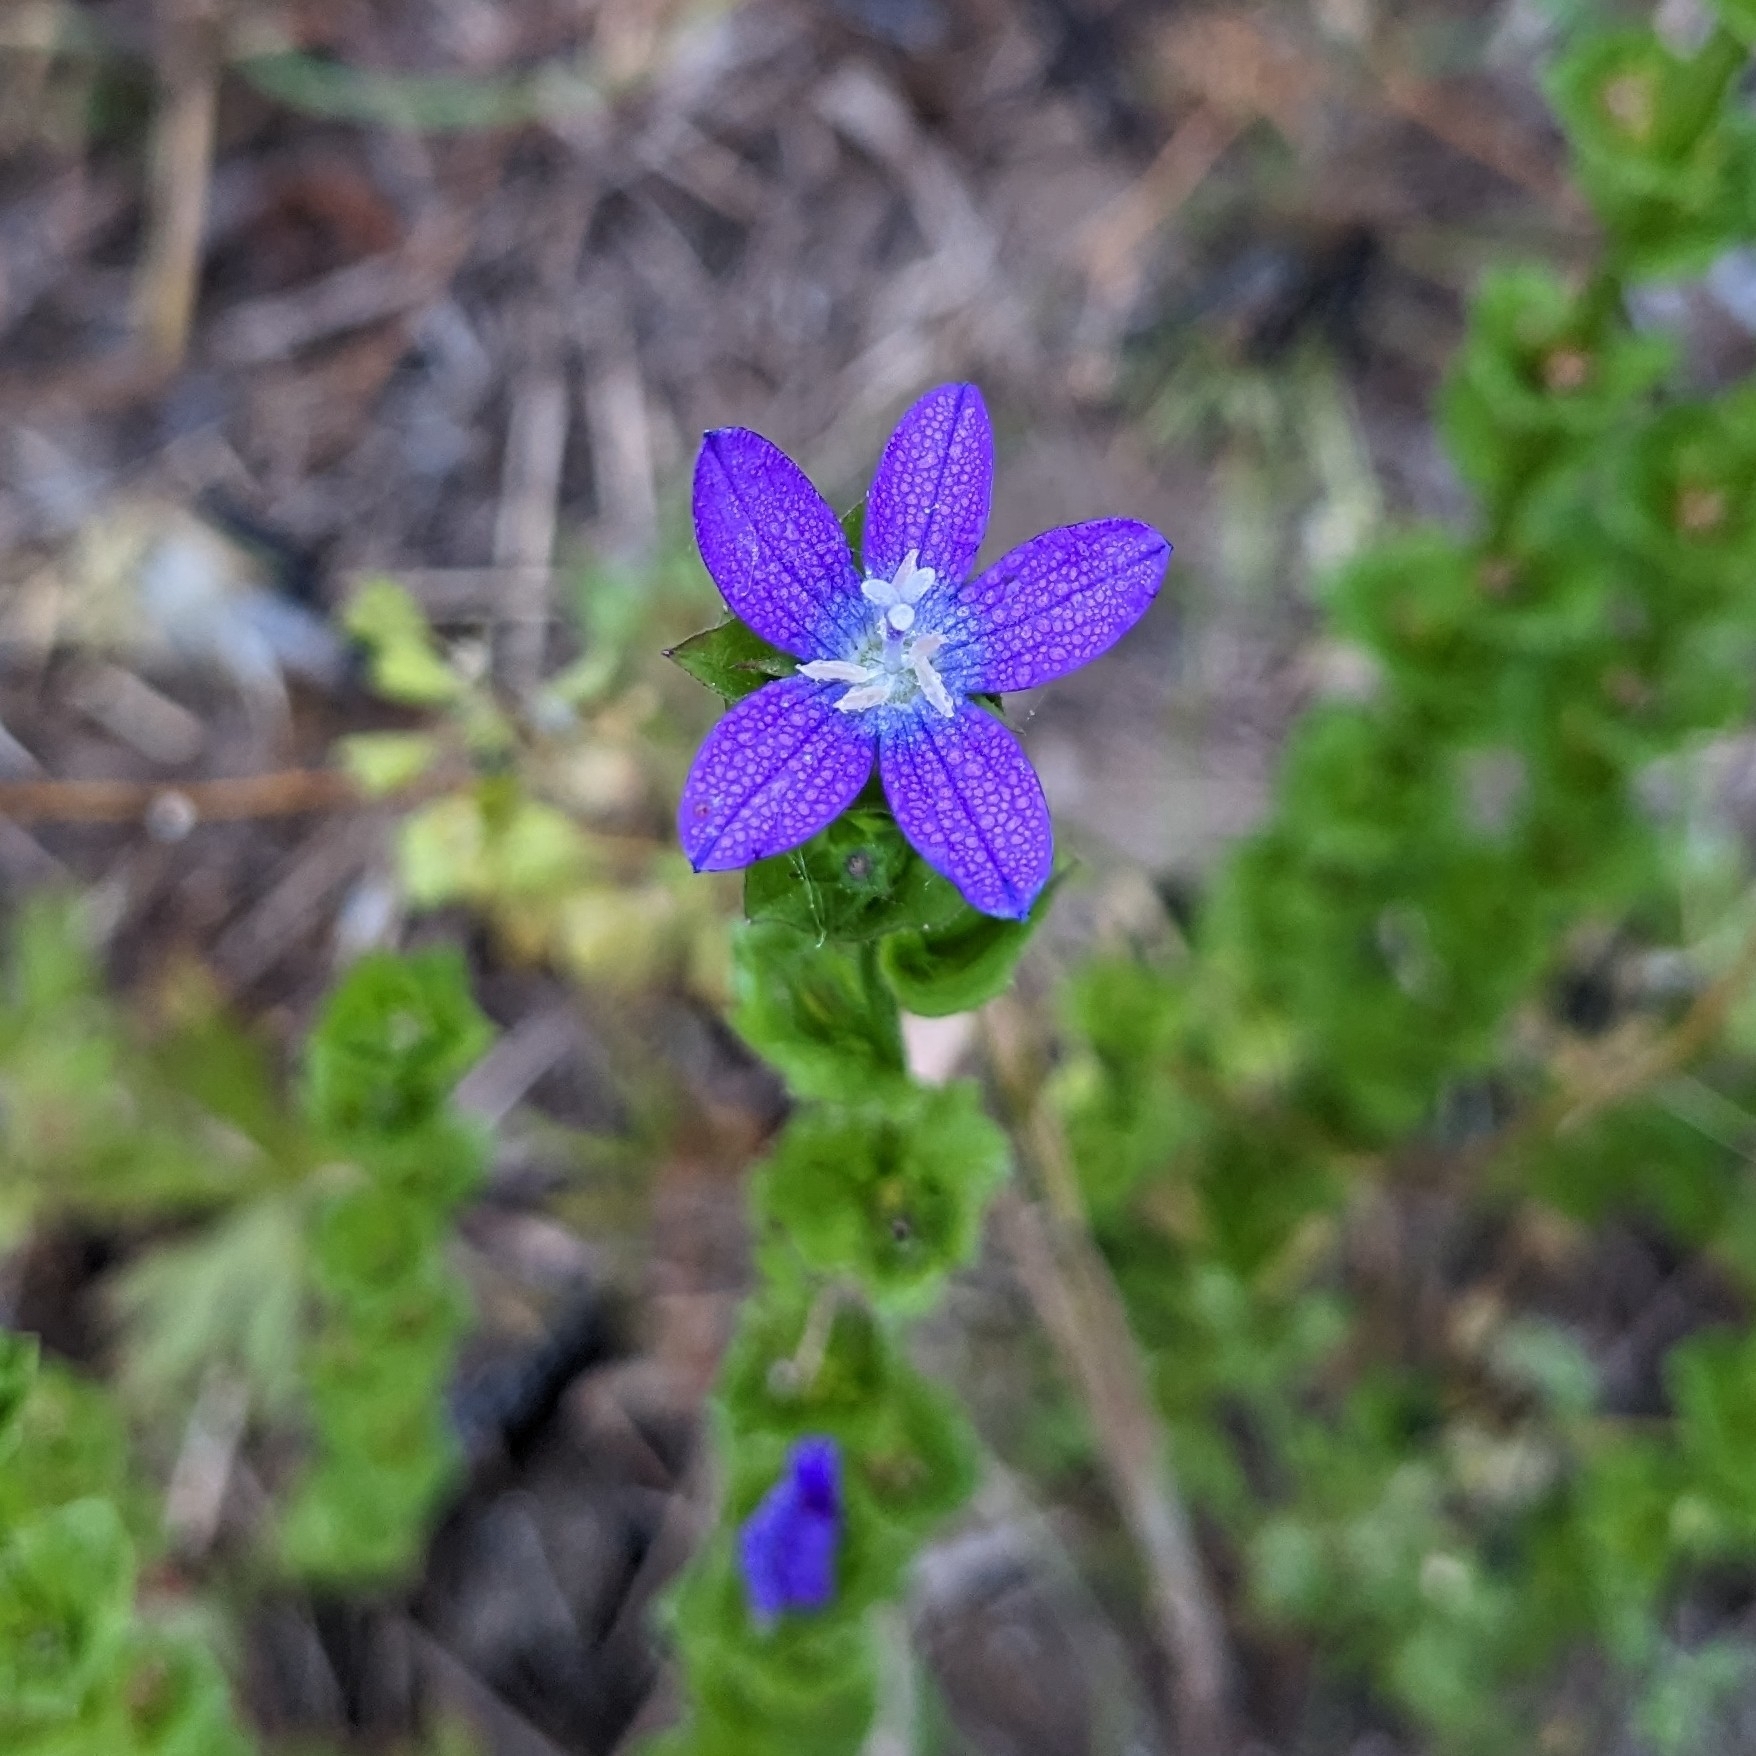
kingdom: Plantae
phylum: Tracheophyta
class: Magnoliopsida
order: Asterales
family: Campanulaceae
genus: Triodanis
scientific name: Triodanis perfoliata
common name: Clasping venus' looking-glass
